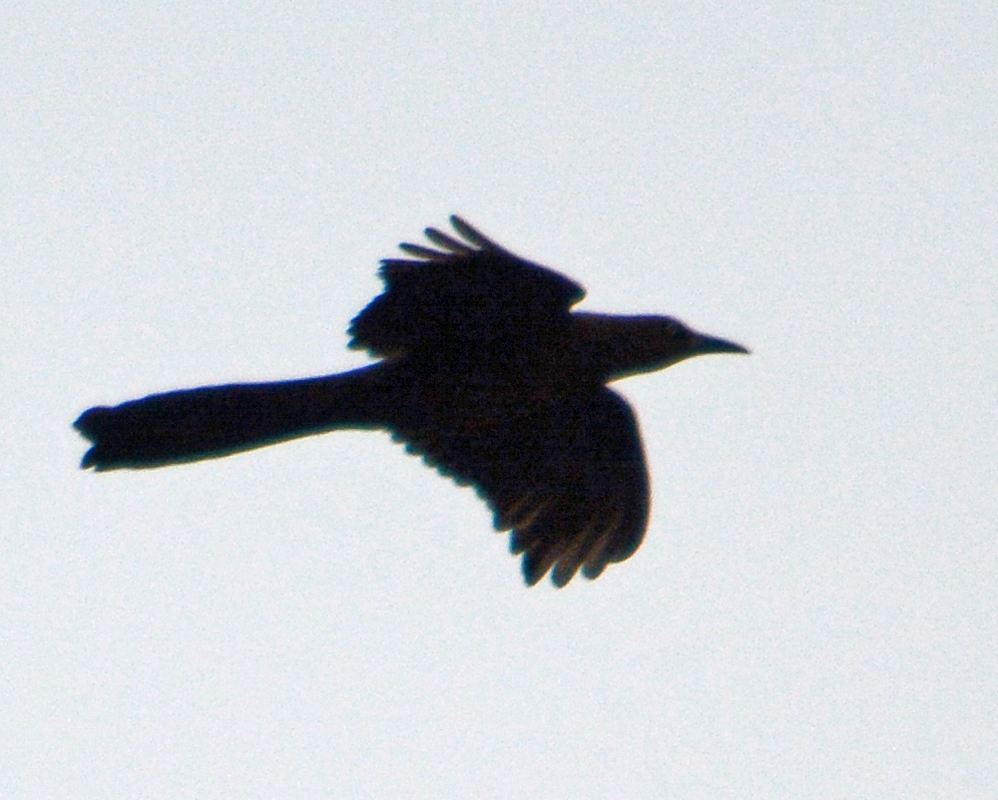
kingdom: Animalia
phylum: Chordata
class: Aves
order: Passeriformes
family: Icteridae
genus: Quiscalus
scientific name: Quiscalus mexicanus
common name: Great-tailed grackle
